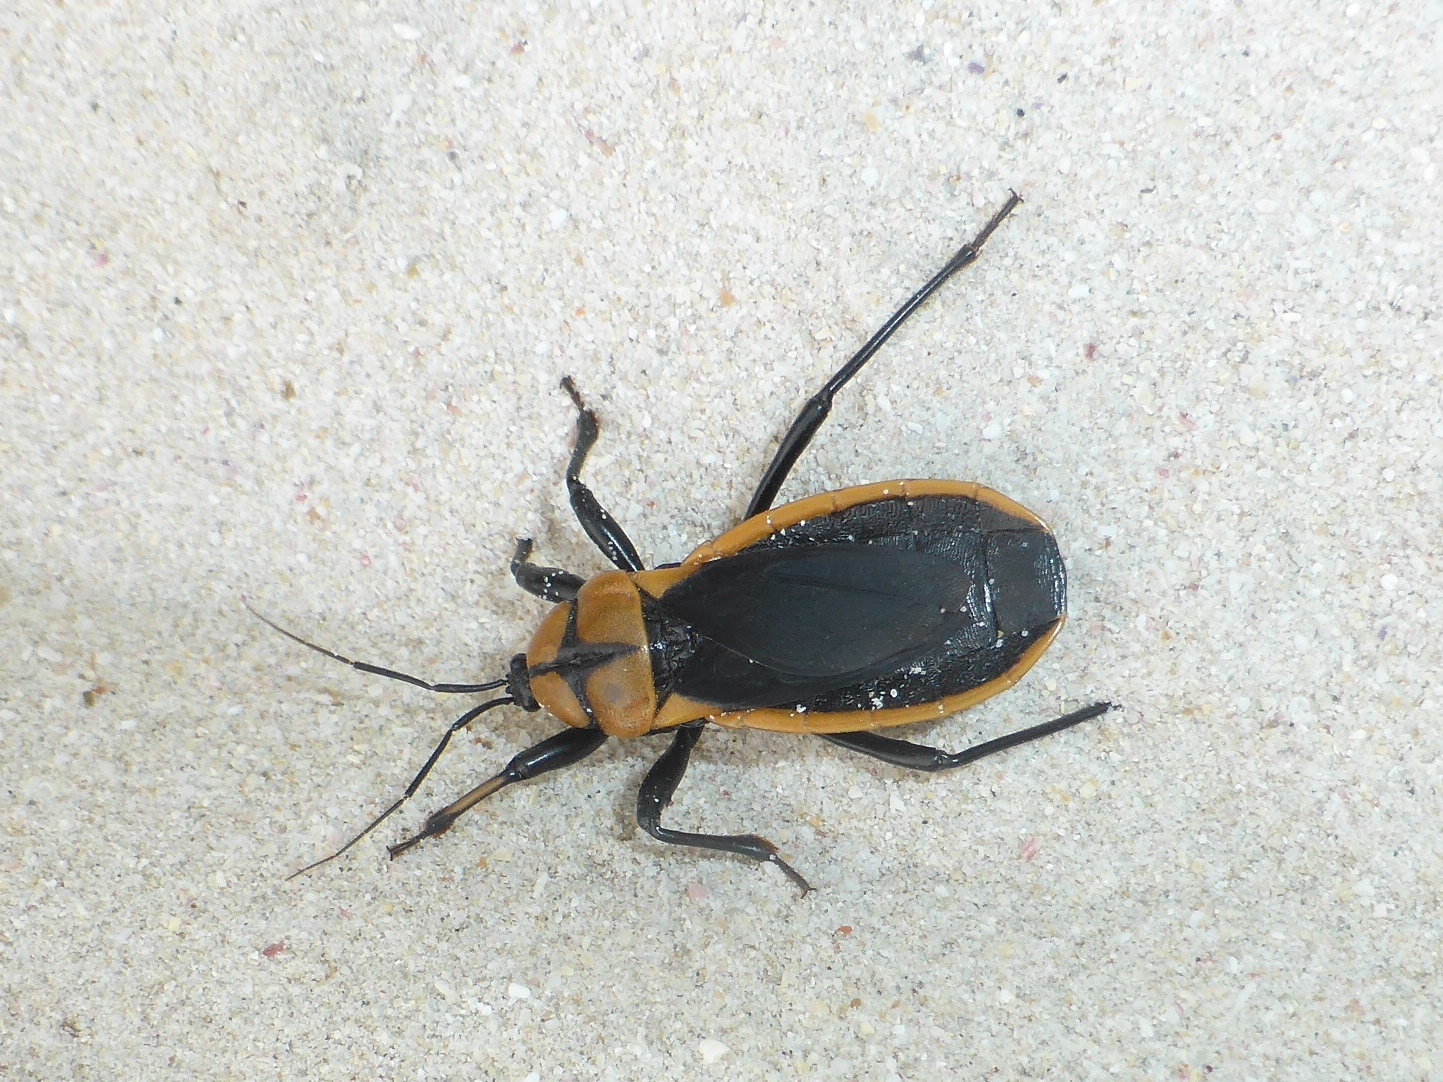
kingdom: Animalia
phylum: Arthropoda
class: Insecta
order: Hemiptera
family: Reduviidae
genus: Ectrichodia
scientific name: Ectrichodia crux
